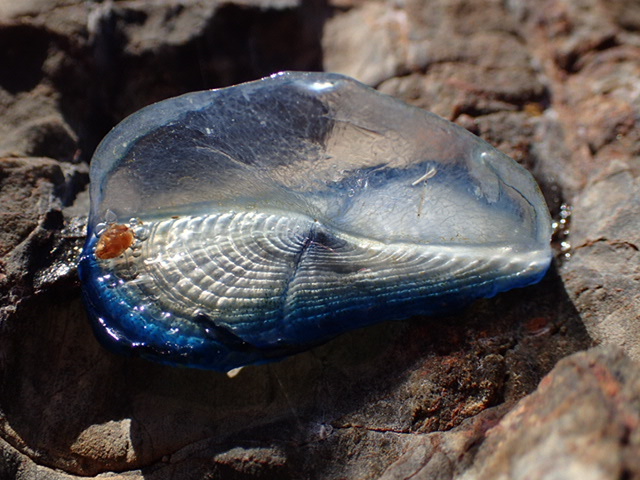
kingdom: Animalia
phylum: Cnidaria
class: Hydrozoa
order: Anthoathecata
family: Porpitidae
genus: Velella
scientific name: Velella velella
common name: By-the-wind-sailor
